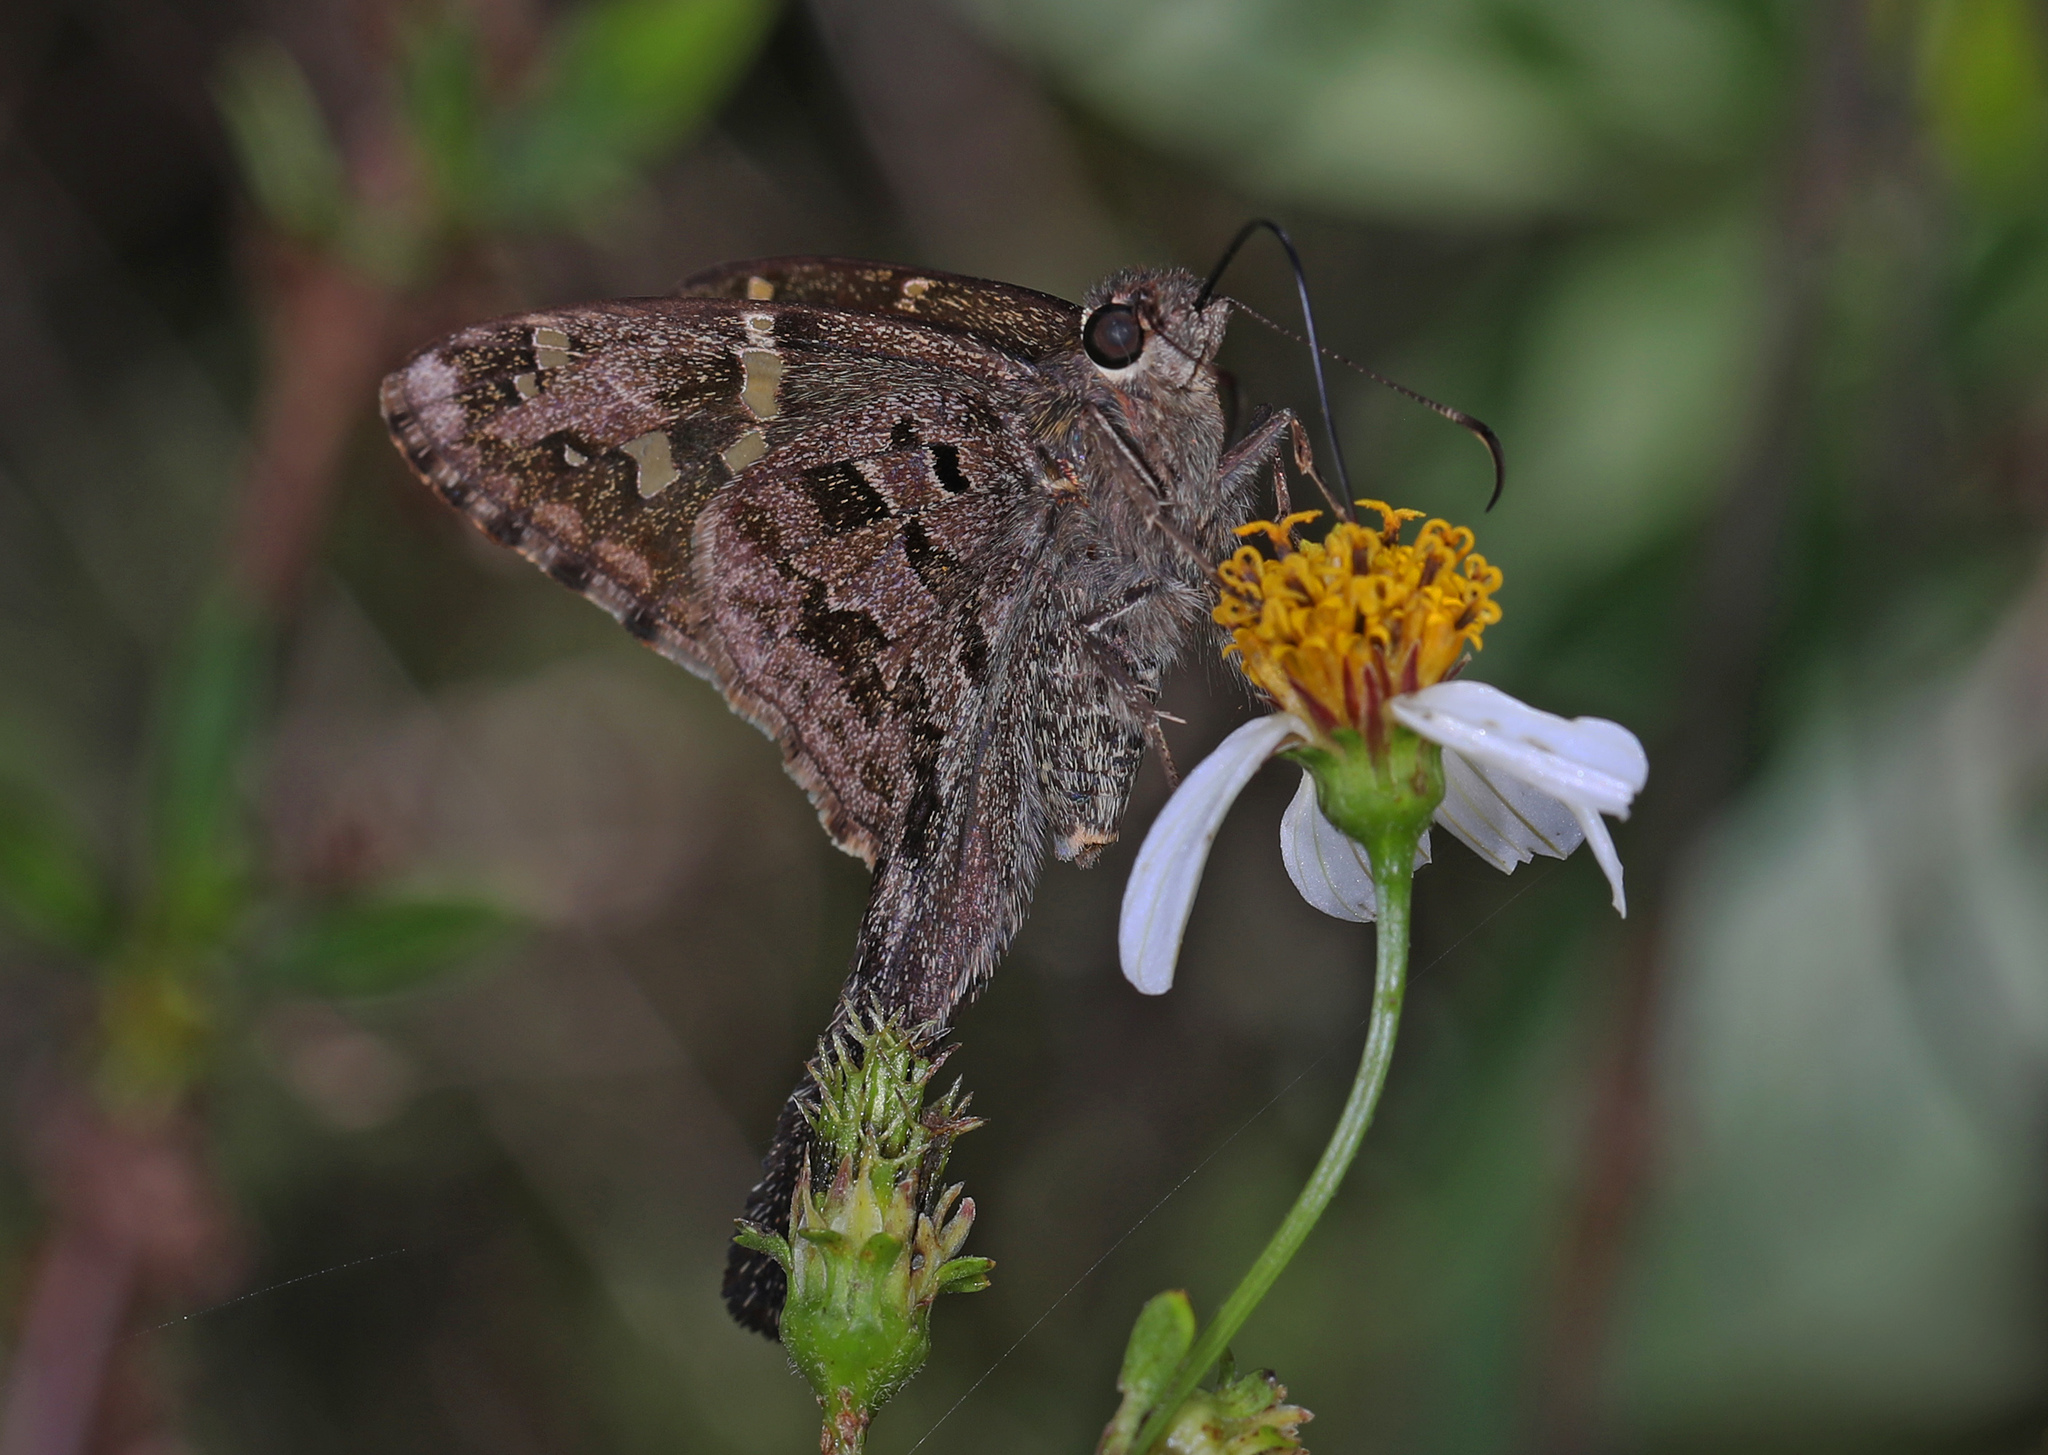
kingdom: Animalia
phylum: Arthropoda
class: Insecta
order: Lepidoptera
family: Hesperiidae
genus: Thorybes
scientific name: Thorybes
